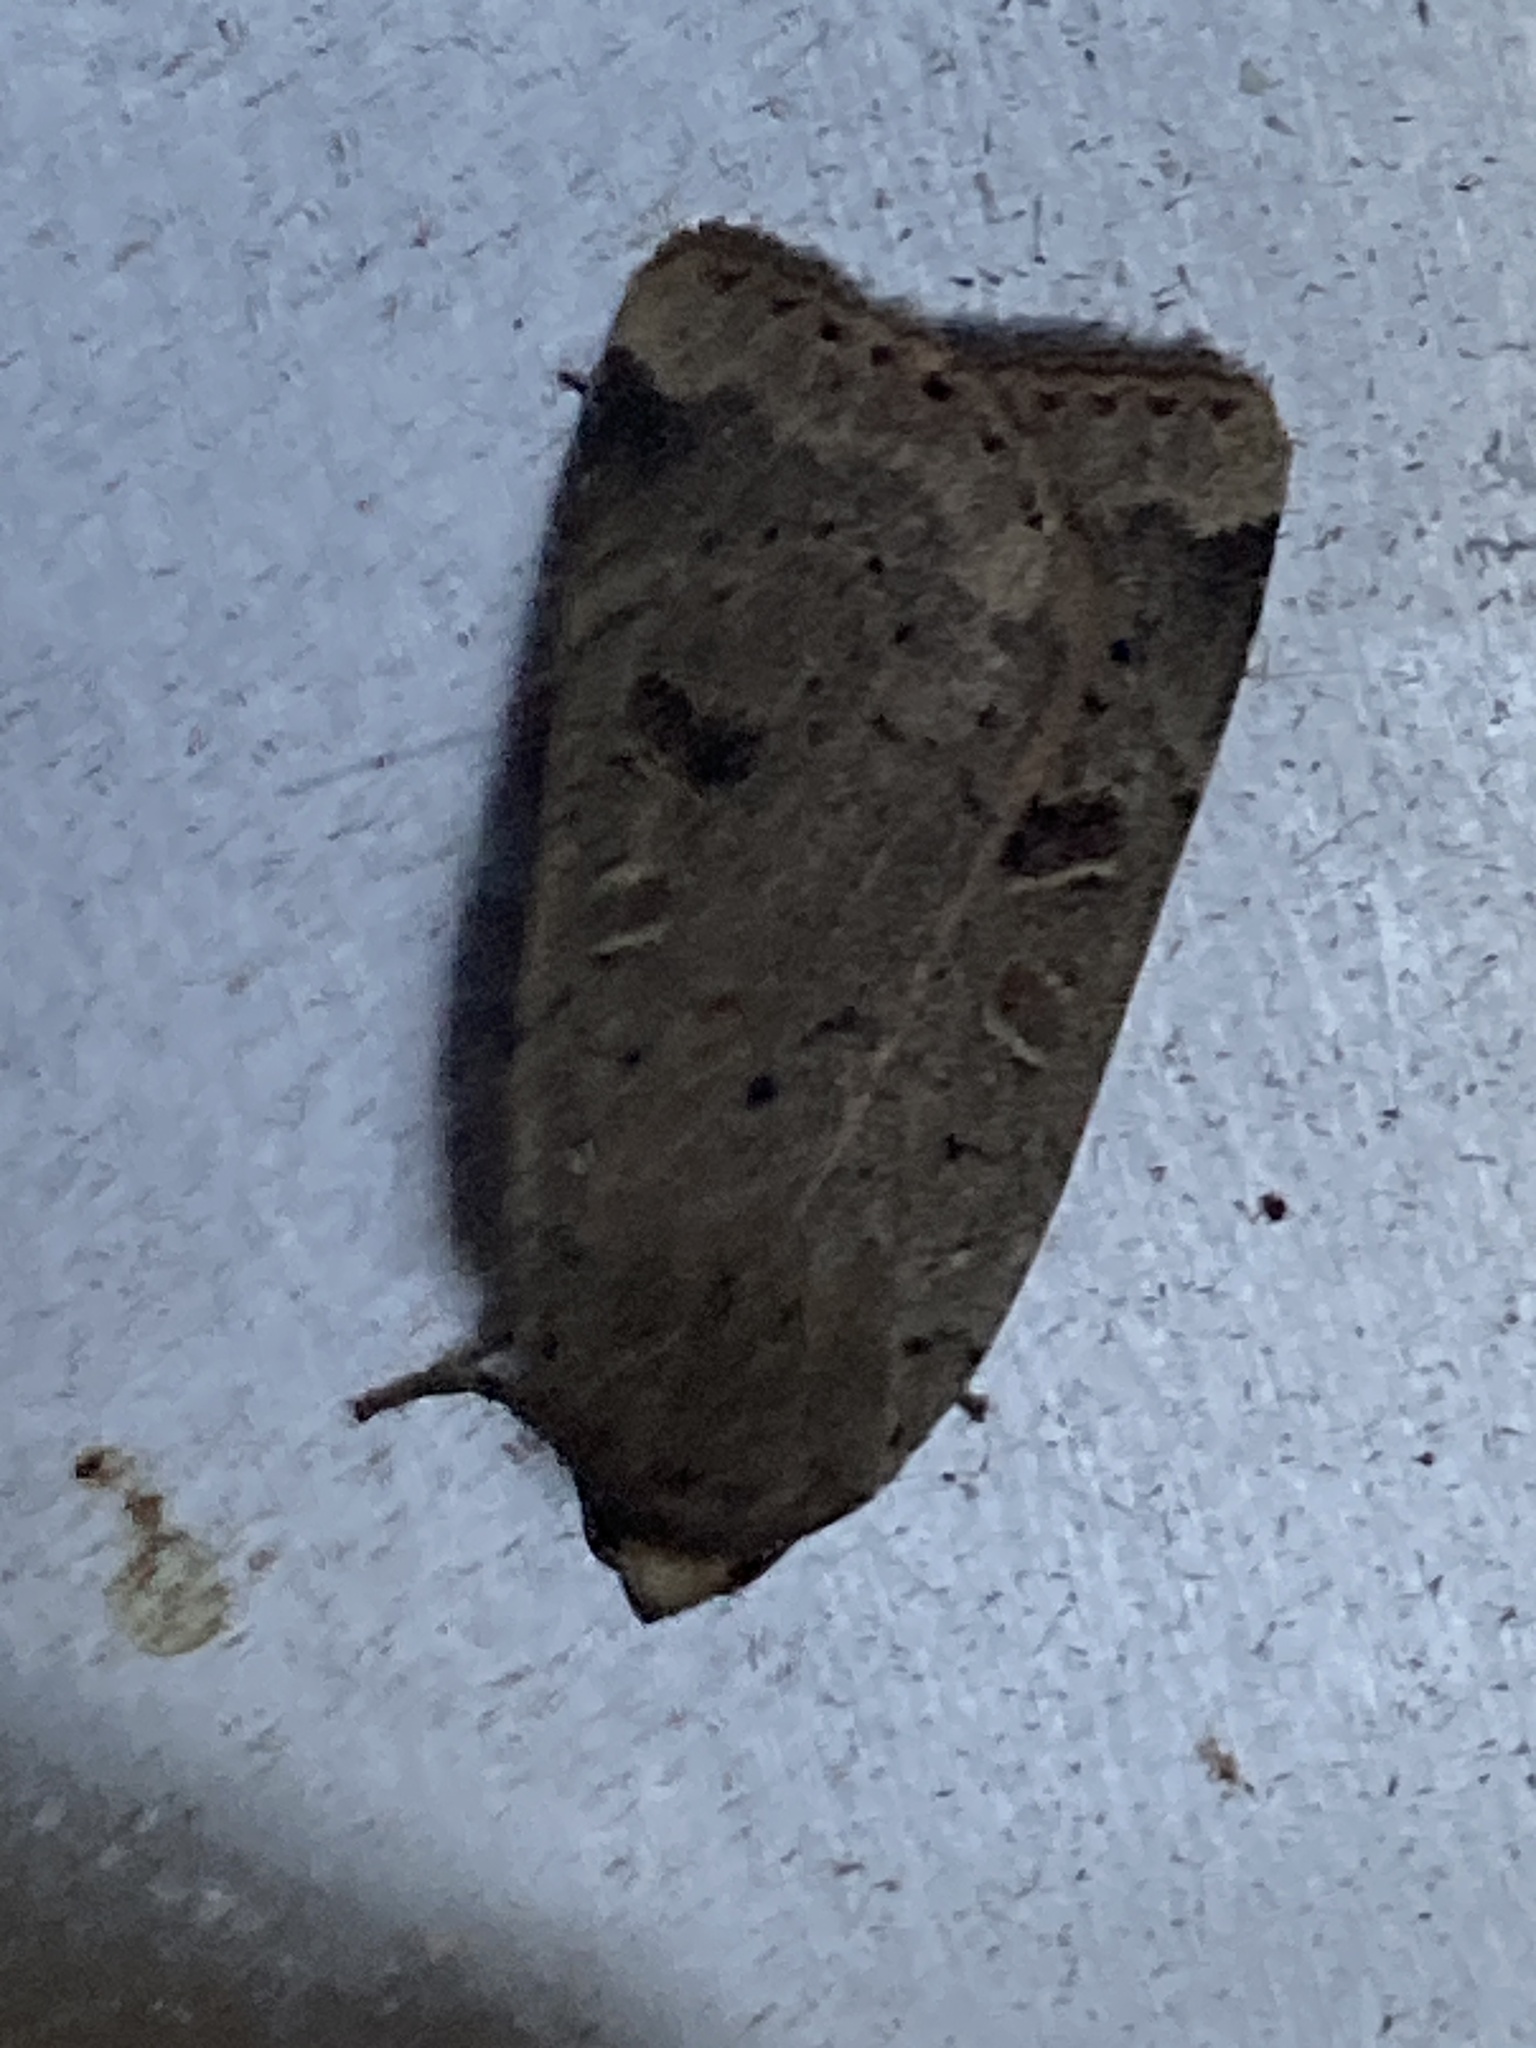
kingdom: Animalia
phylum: Arthropoda
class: Insecta
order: Lepidoptera
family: Noctuidae
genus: Noctua
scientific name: Noctua comes
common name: Lesser yellow underwing
